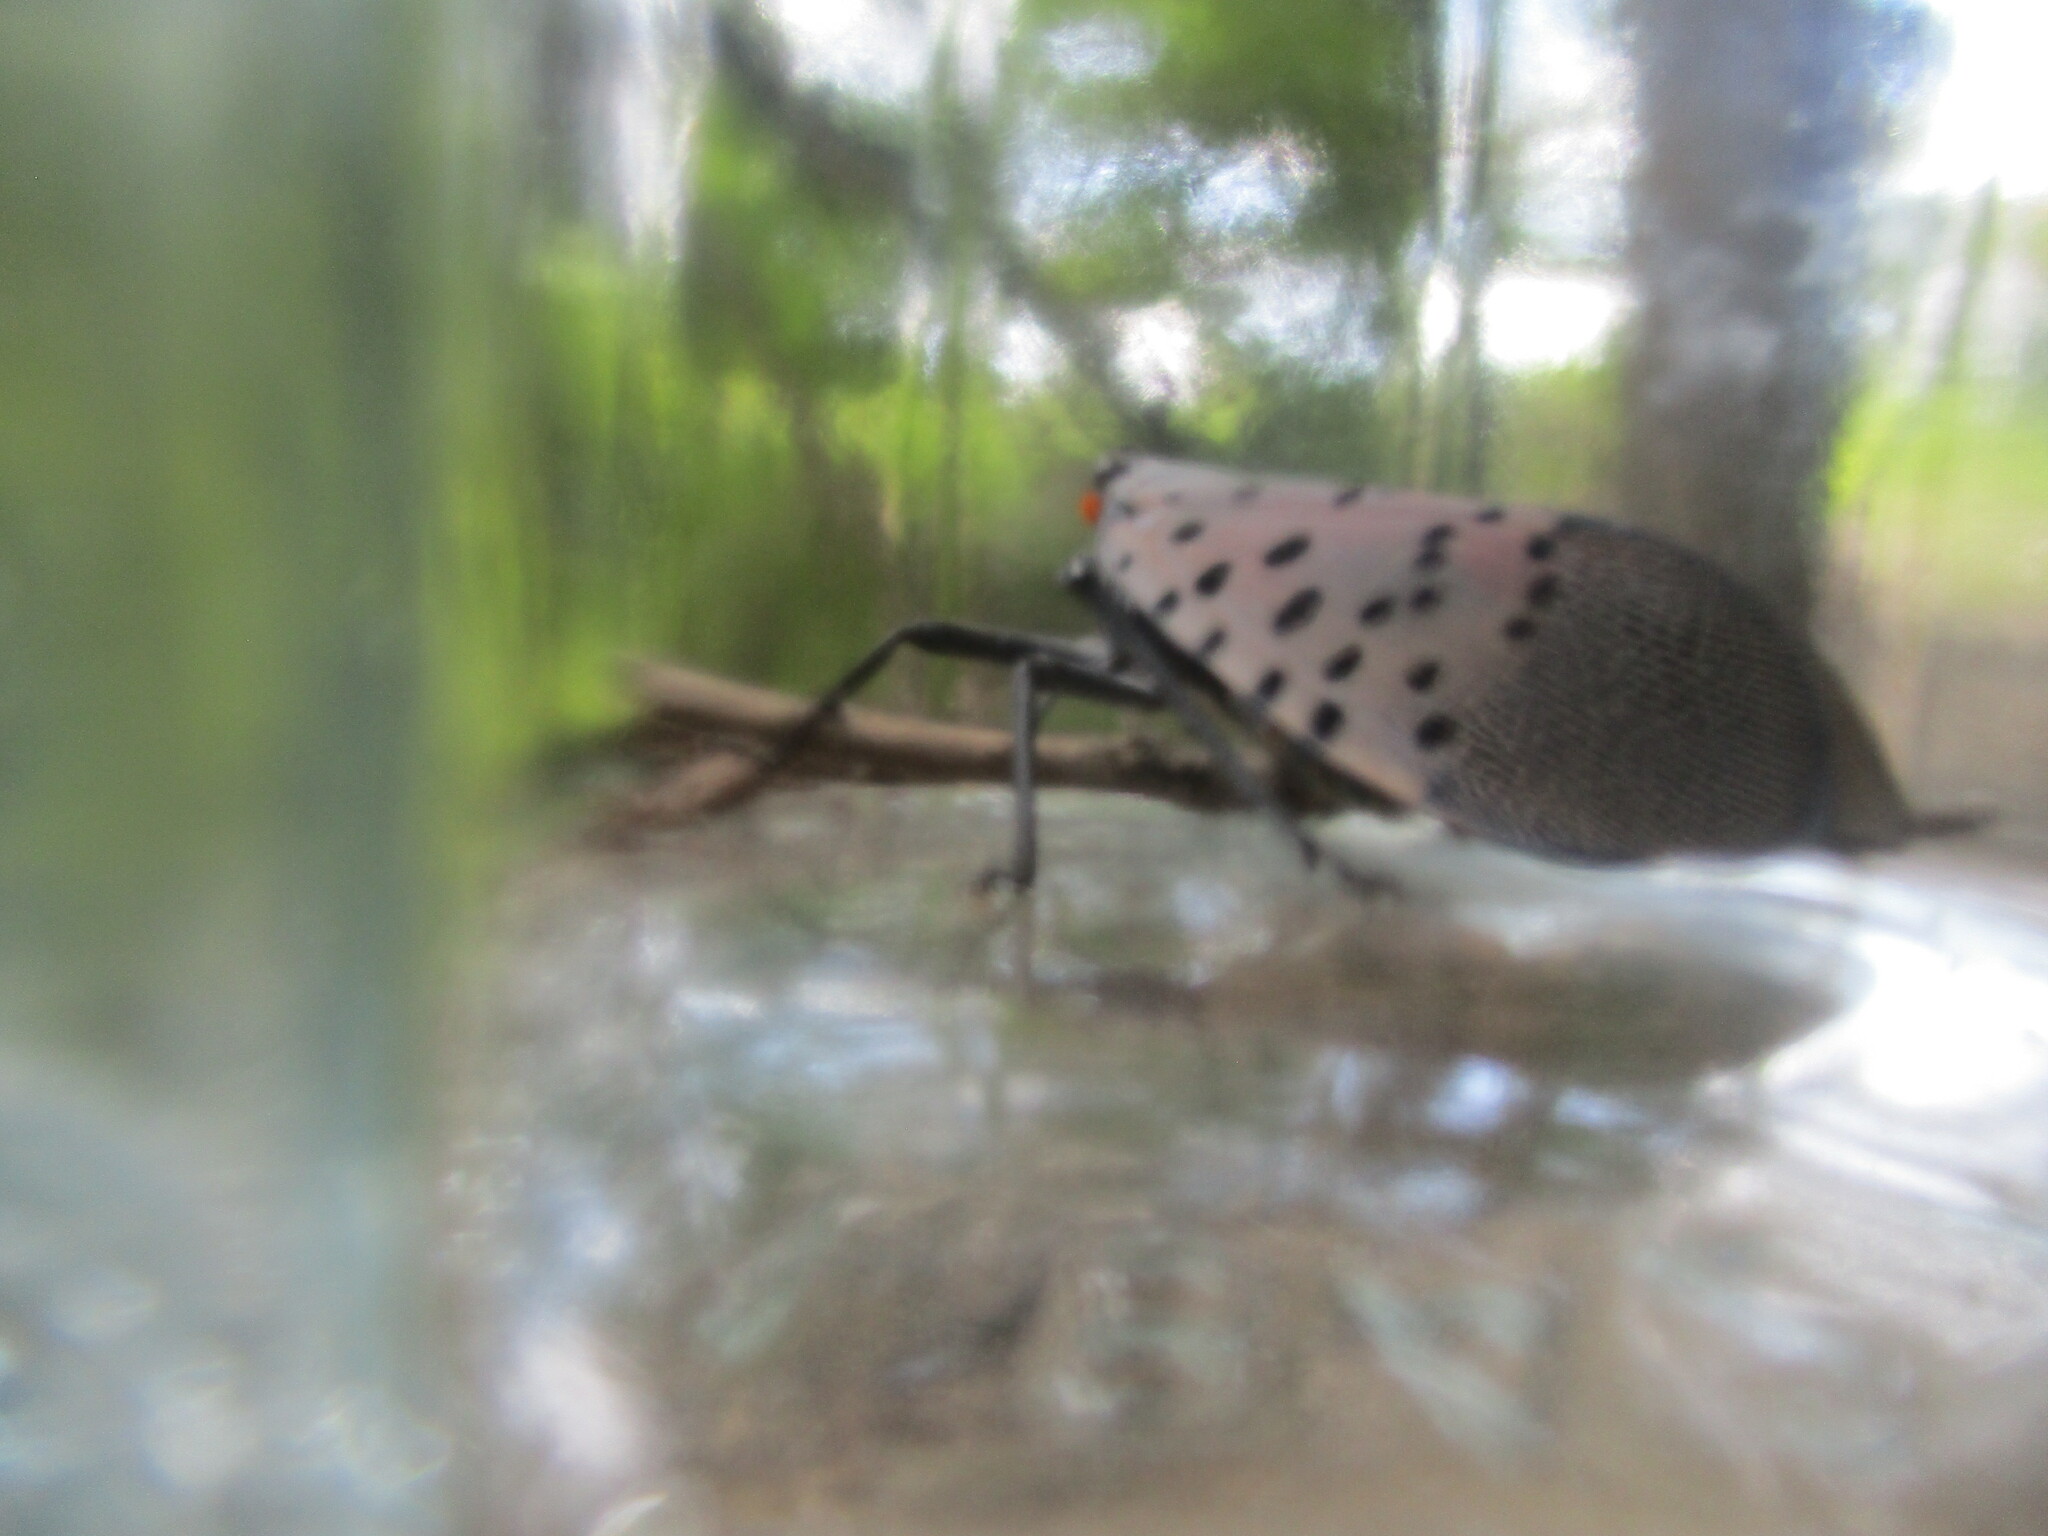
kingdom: Animalia
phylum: Arthropoda
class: Insecta
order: Hemiptera
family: Fulgoridae
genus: Lycorma
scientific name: Lycorma delicatula
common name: Spotted lanternfly
